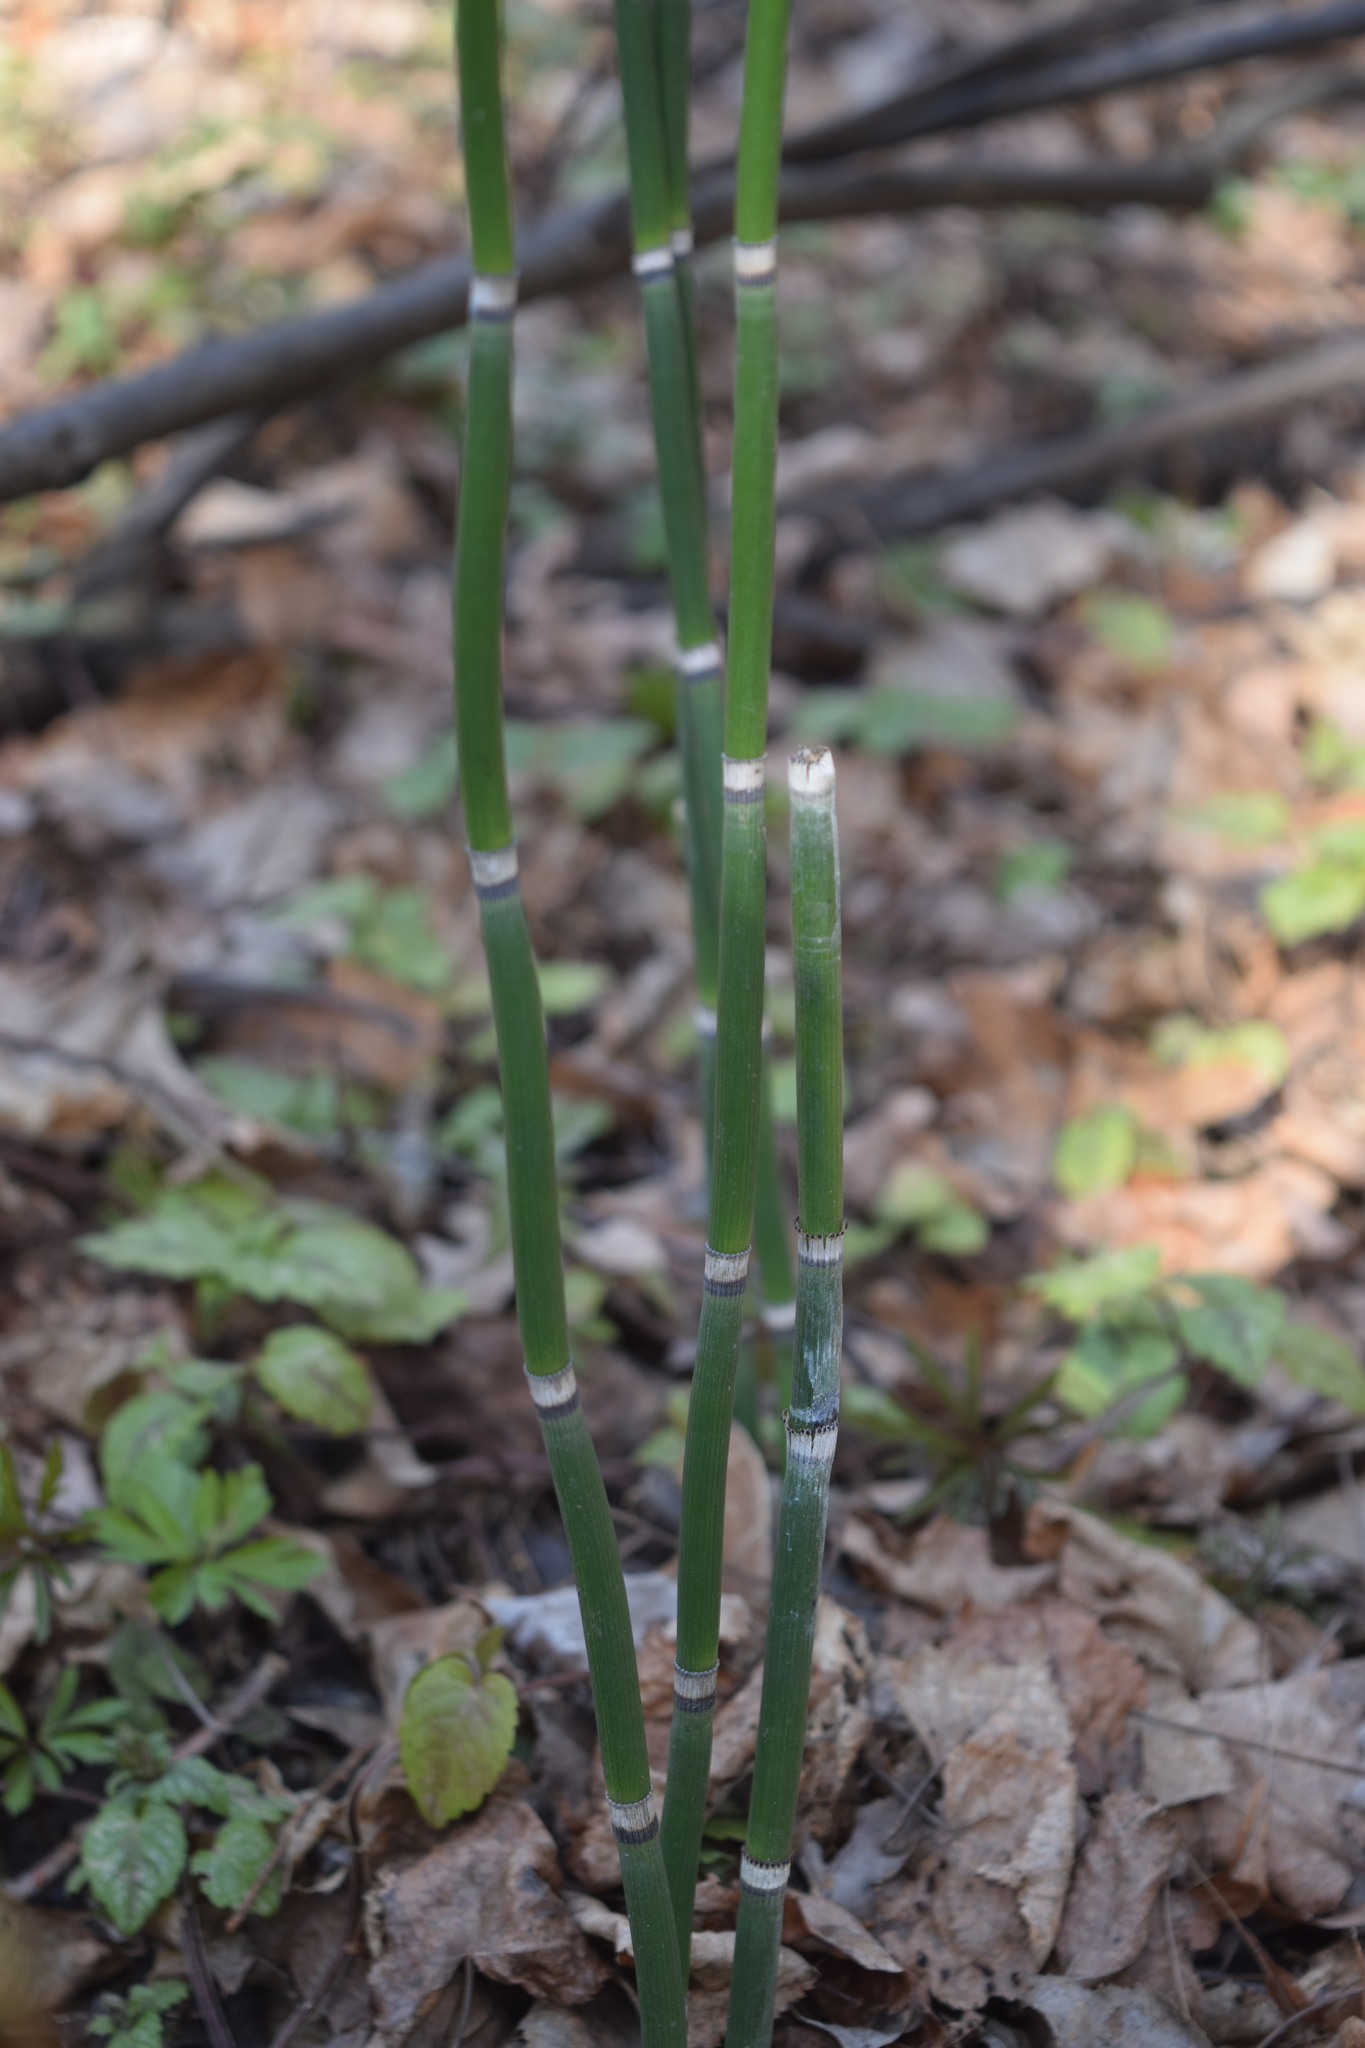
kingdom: Plantae
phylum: Tracheophyta
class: Polypodiopsida
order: Equisetales
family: Equisetaceae
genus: Equisetum
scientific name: Equisetum hyemale
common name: Rough horsetail
